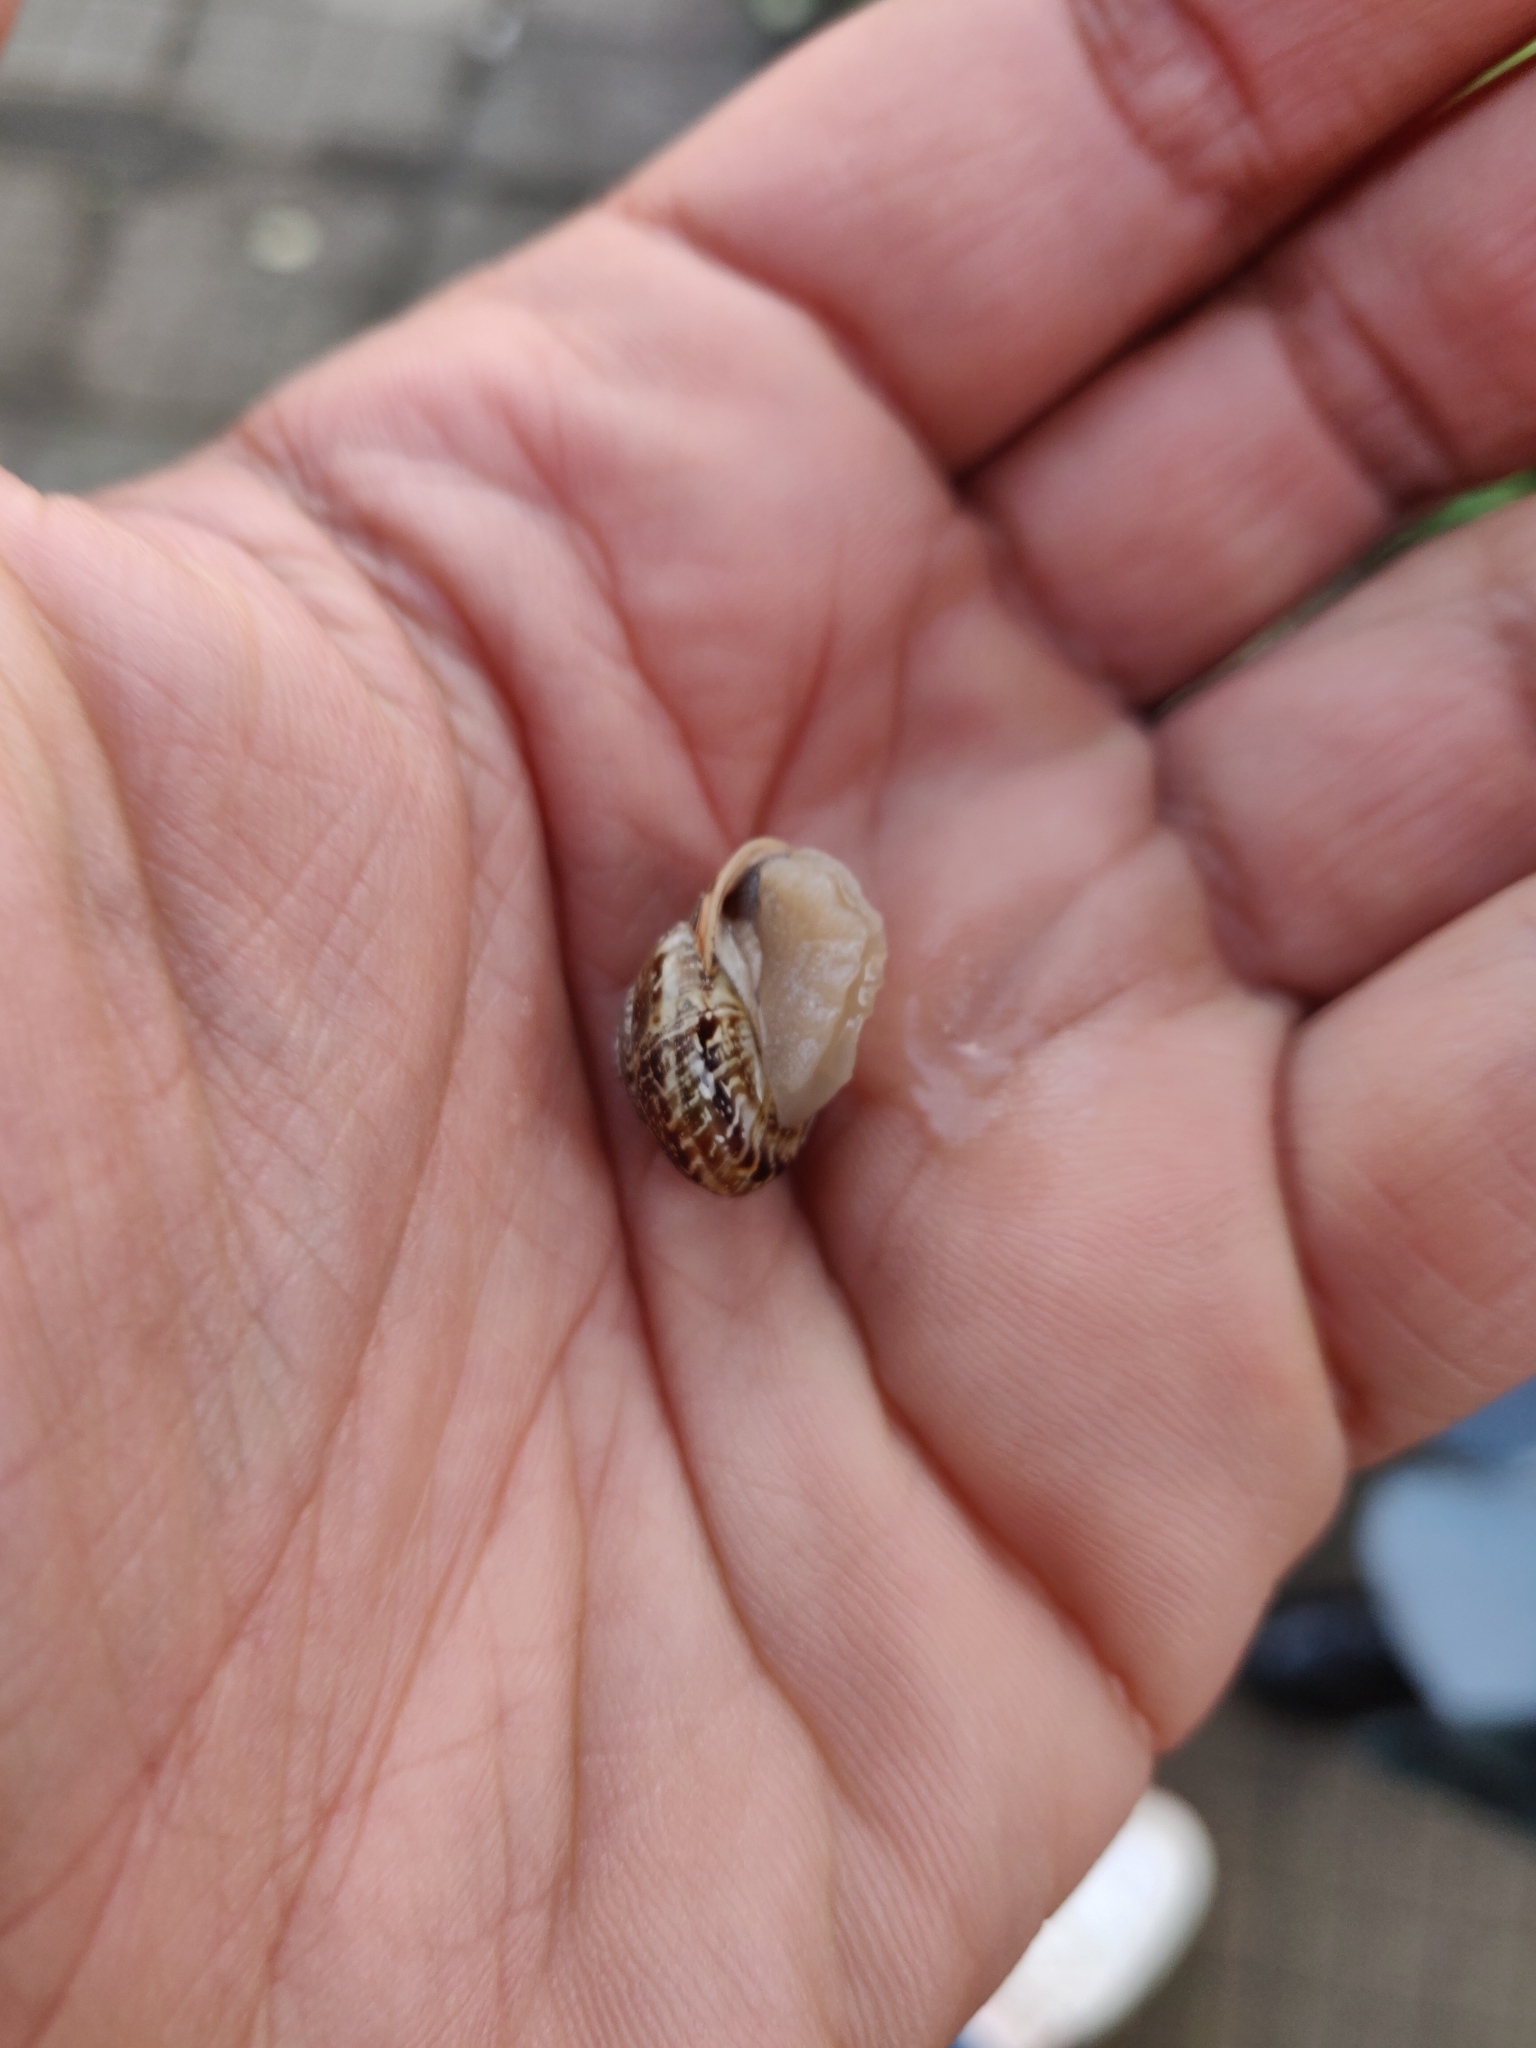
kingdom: Animalia
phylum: Mollusca
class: Gastropoda
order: Stylommatophora
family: Helicidae
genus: Marmorana
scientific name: Marmorana serpentina
